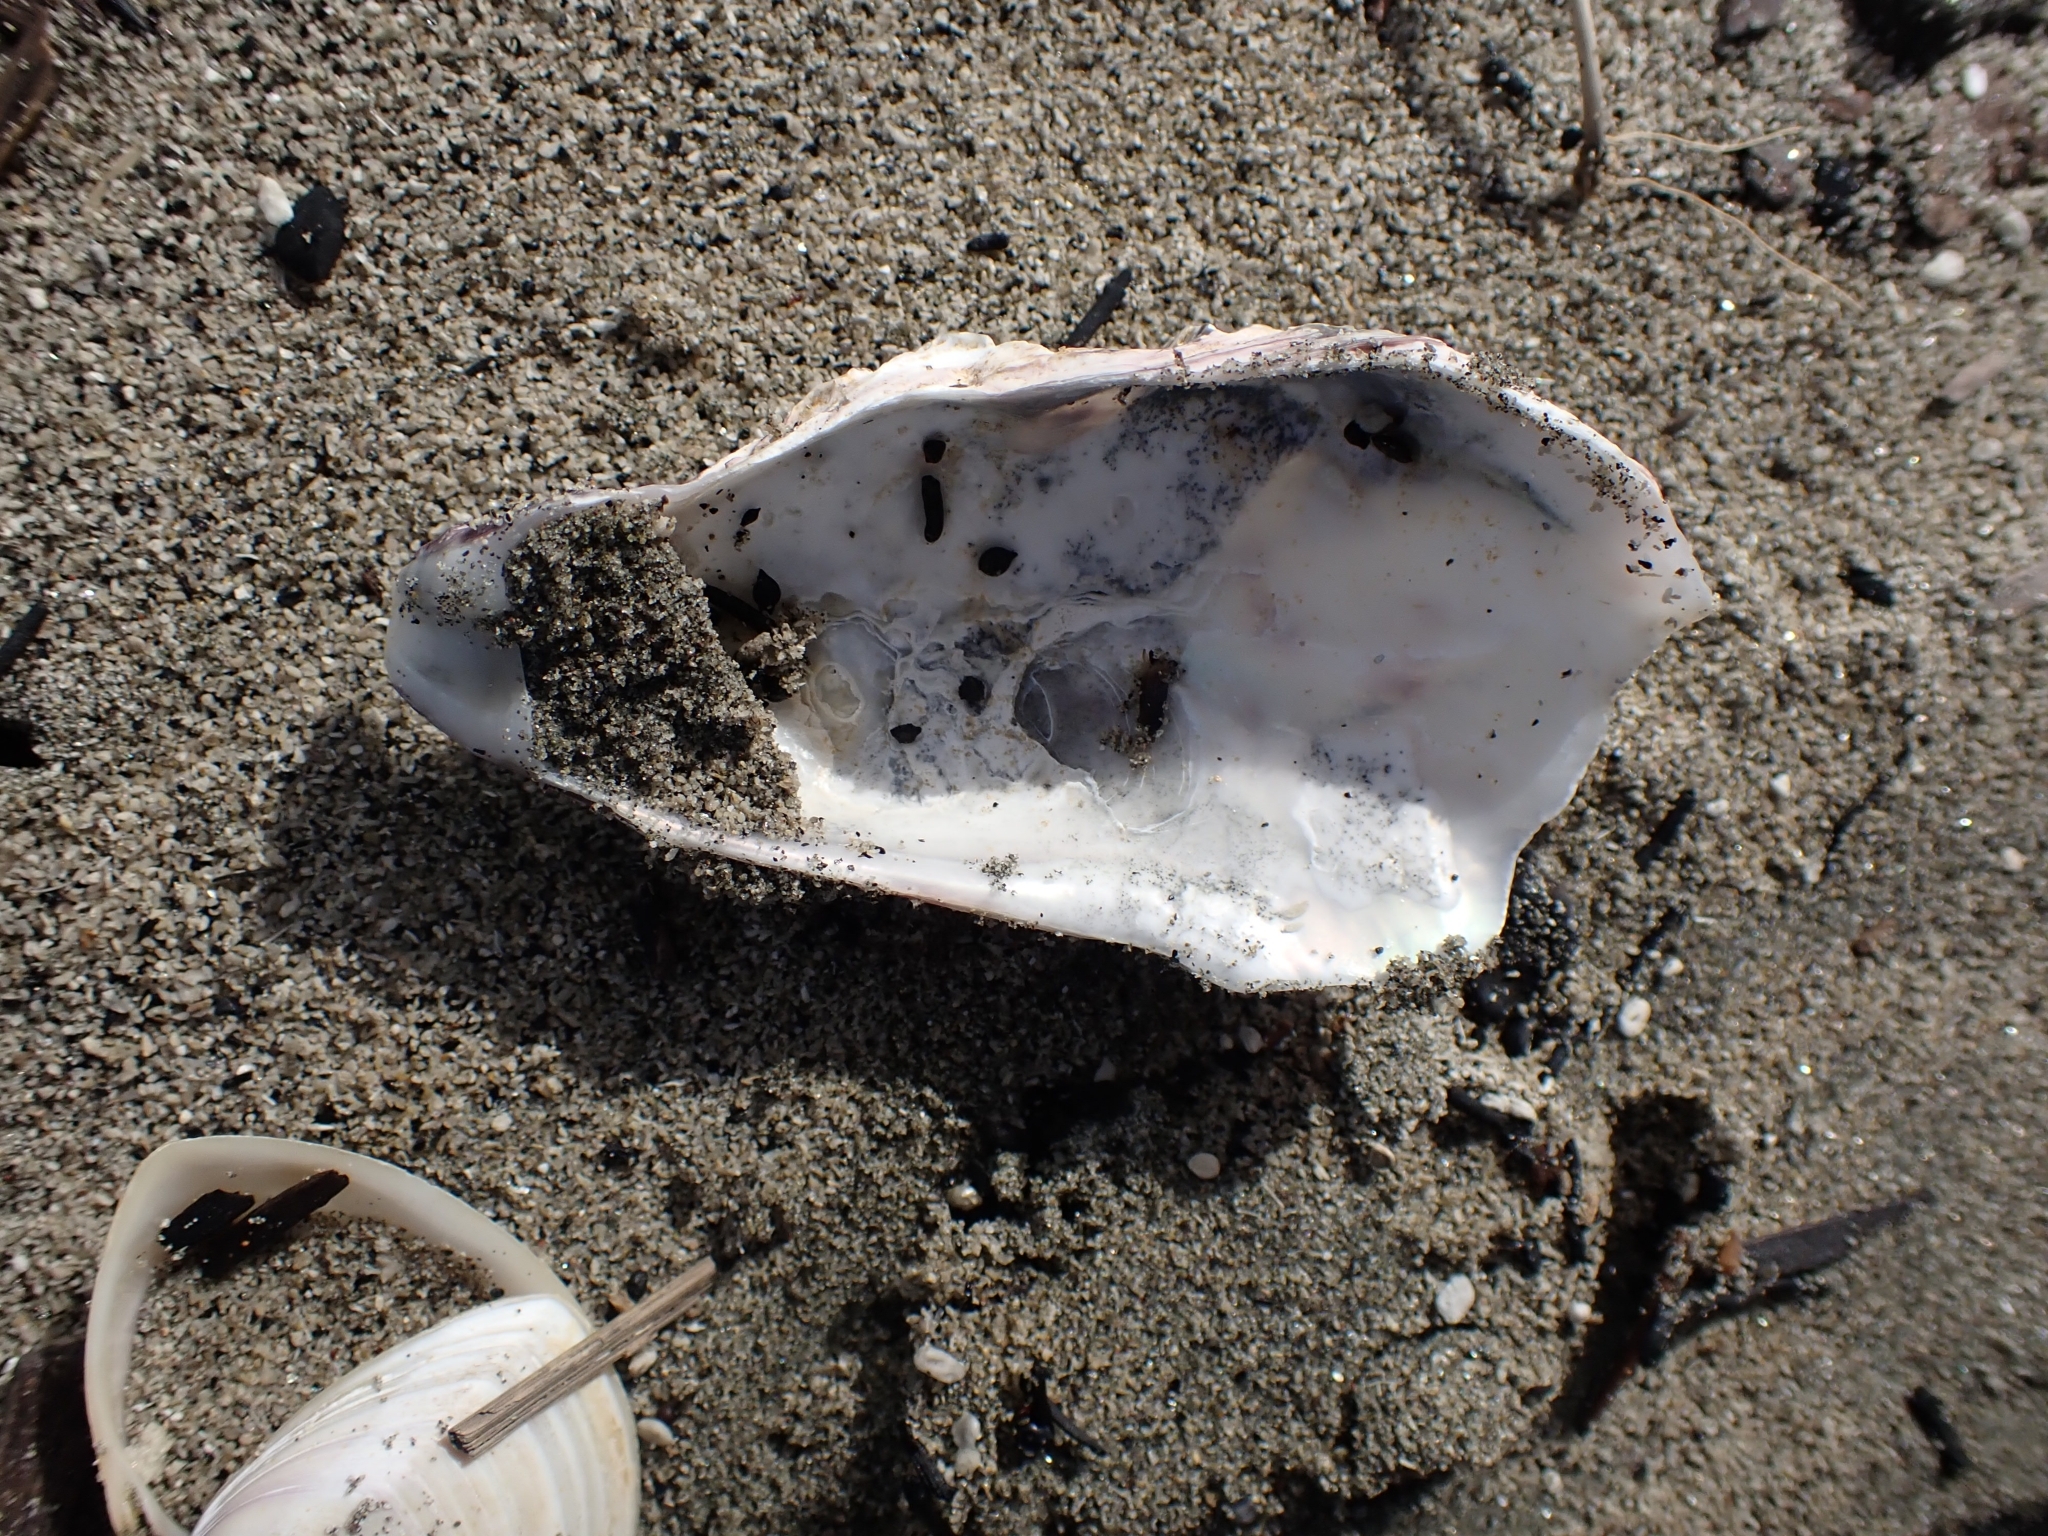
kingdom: Animalia
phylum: Mollusca
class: Bivalvia
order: Ostreida
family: Ostreidae
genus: Magallana
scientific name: Magallana gigas
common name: Pacific oyster
